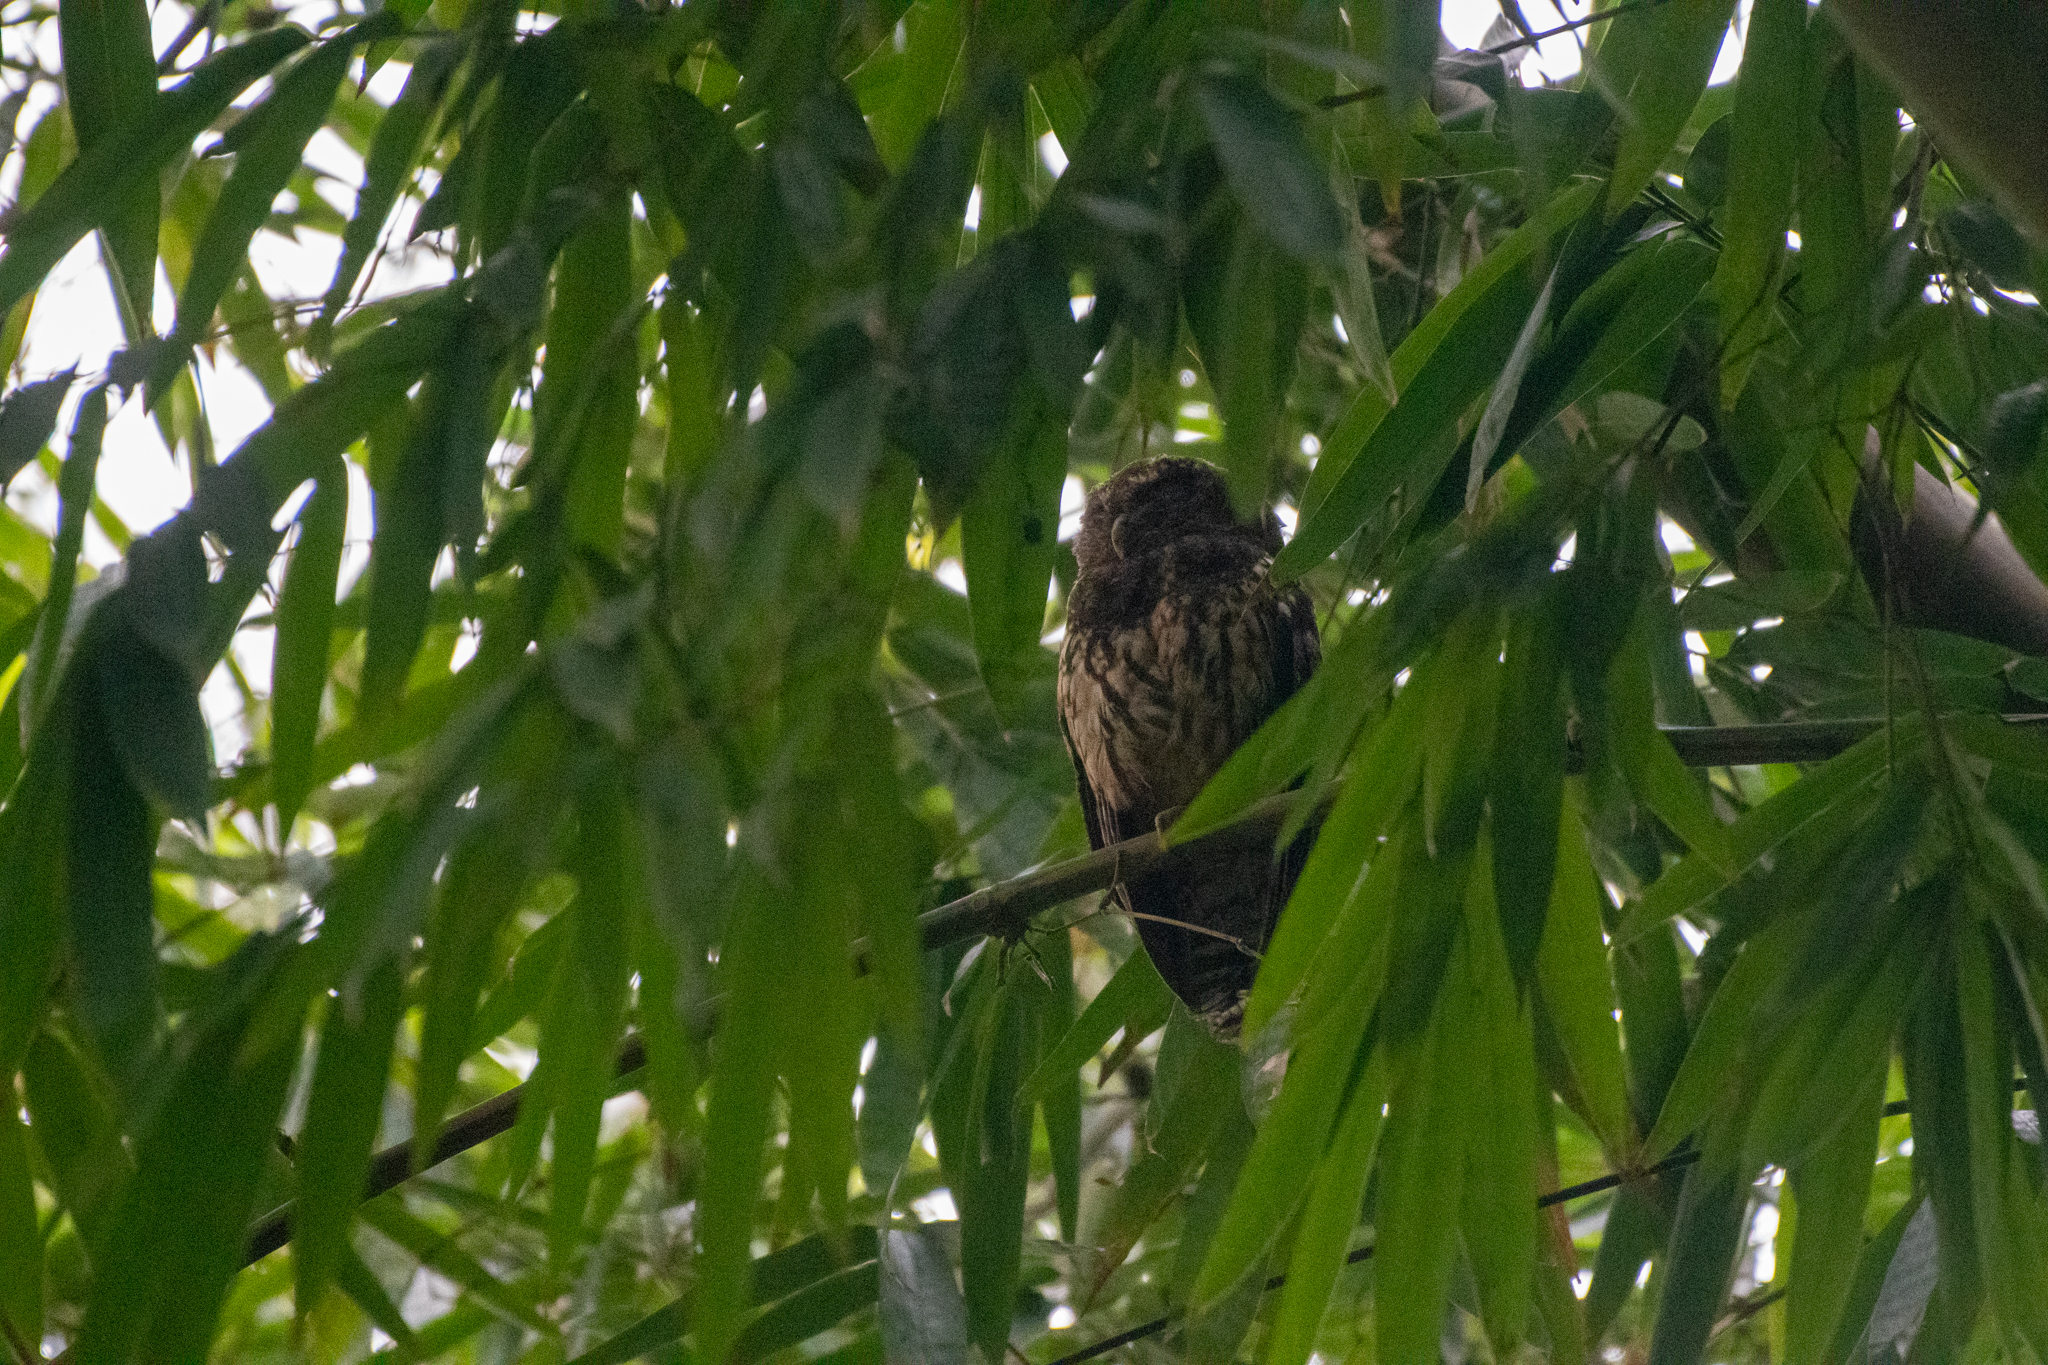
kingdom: Animalia
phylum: Chordata
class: Aves
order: Strigiformes
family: Strigidae
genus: Strix
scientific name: Strix virgata
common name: Mottled owl
